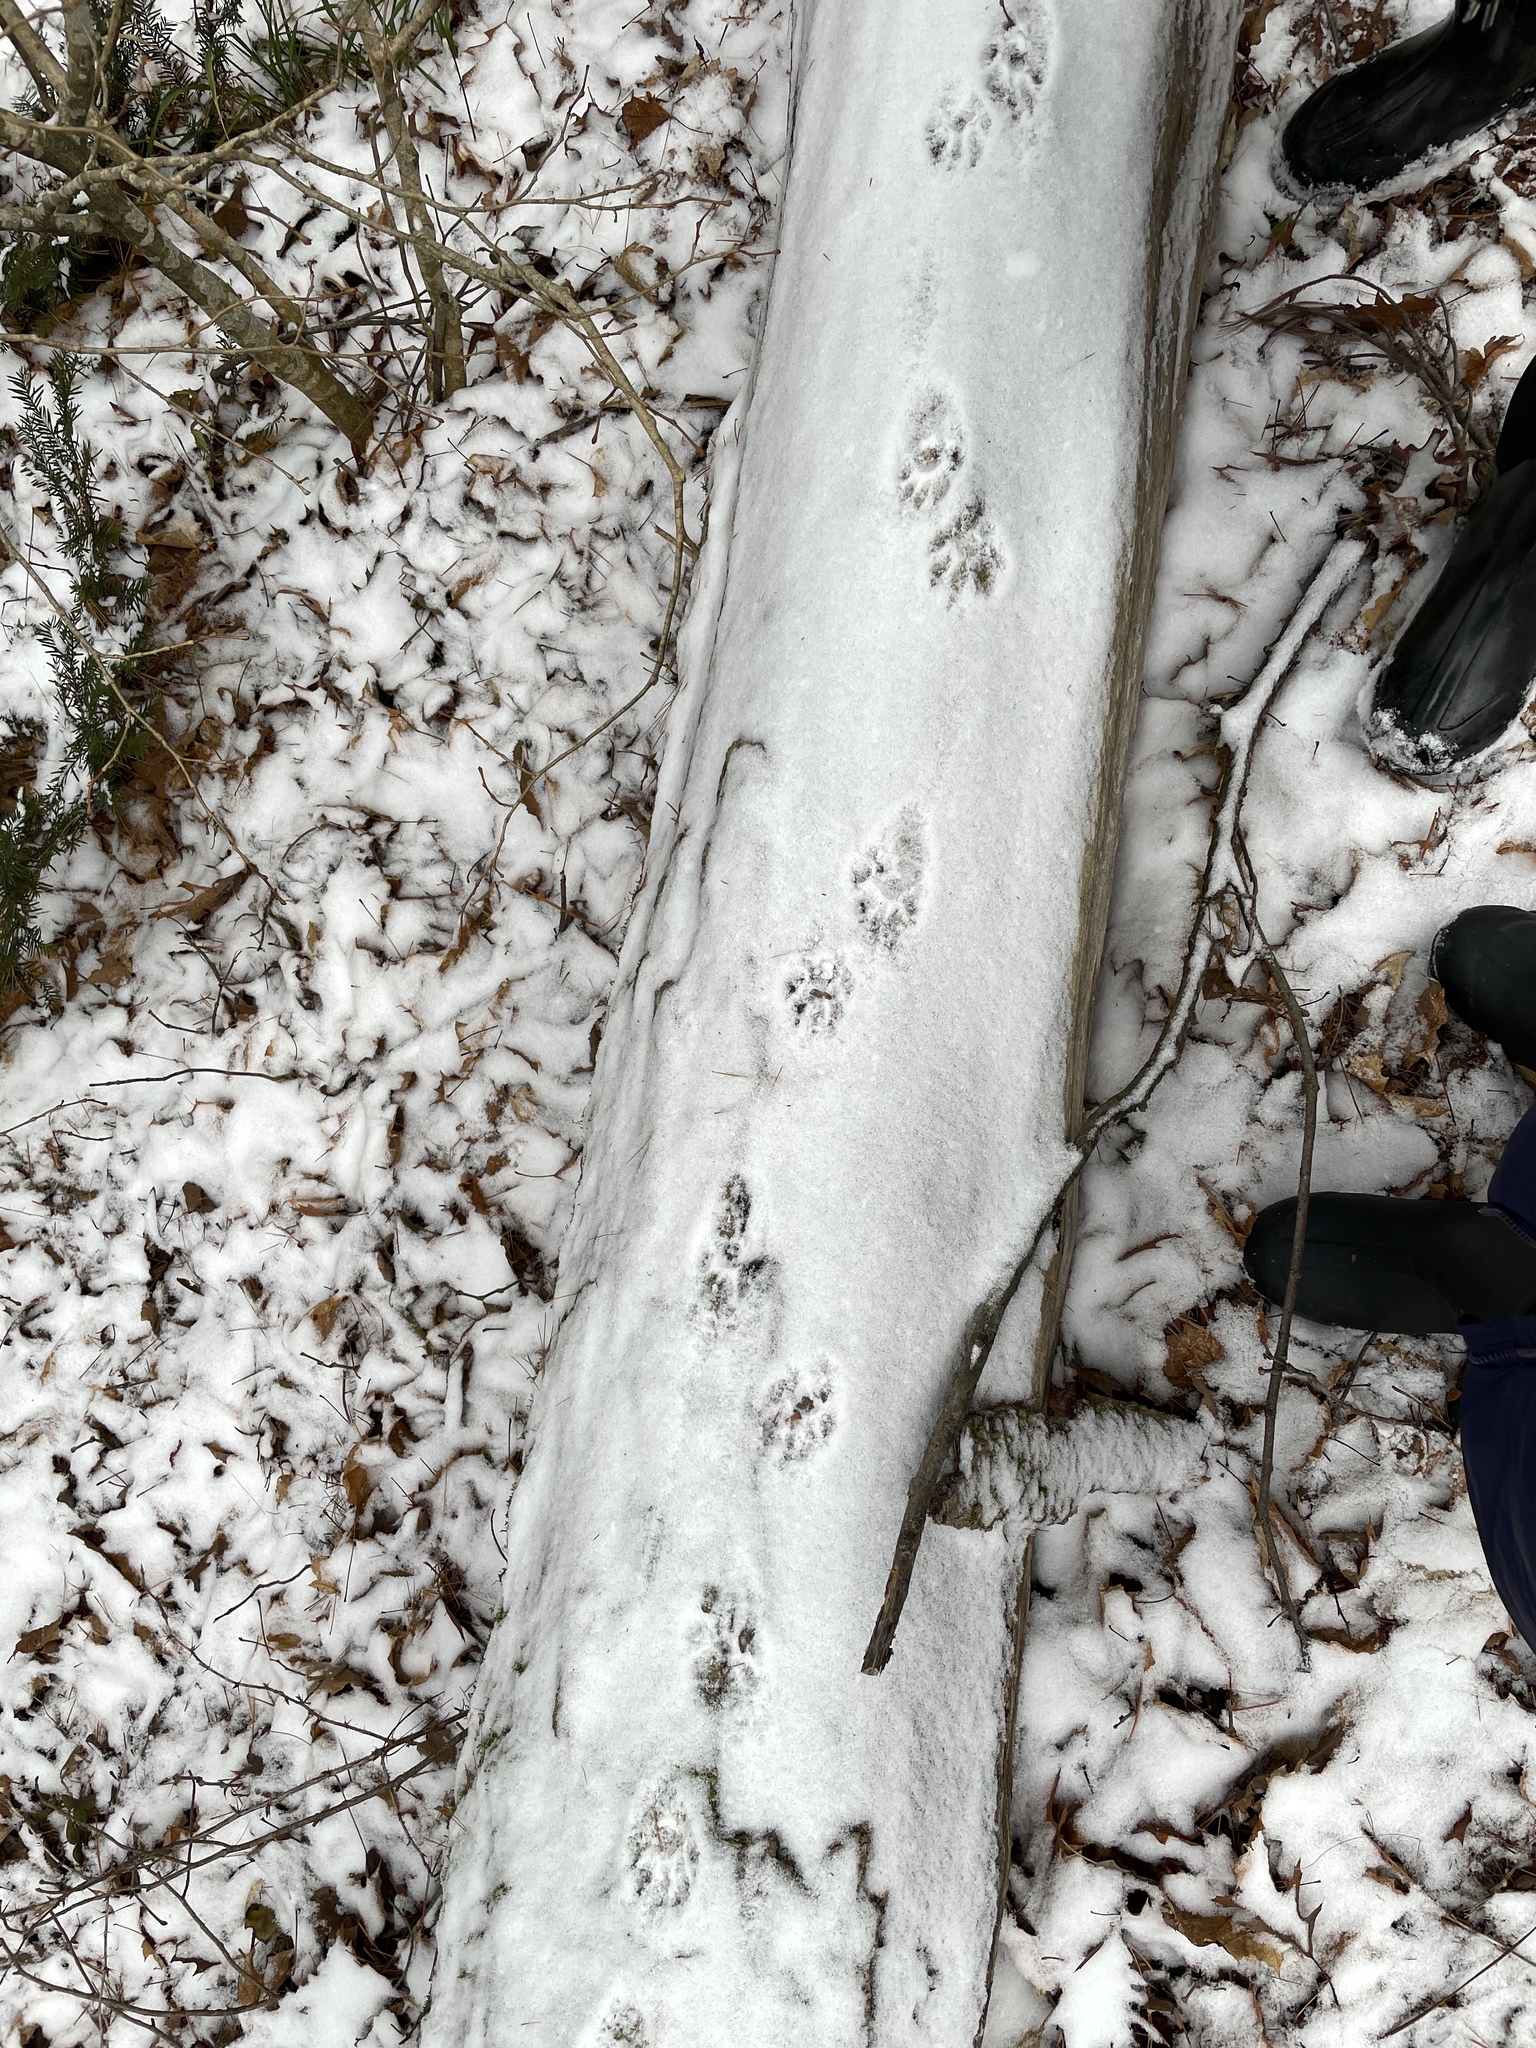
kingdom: Animalia
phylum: Chordata
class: Mammalia
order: Carnivora
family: Procyonidae
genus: Procyon
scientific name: Procyon lotor
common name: Raccoon
